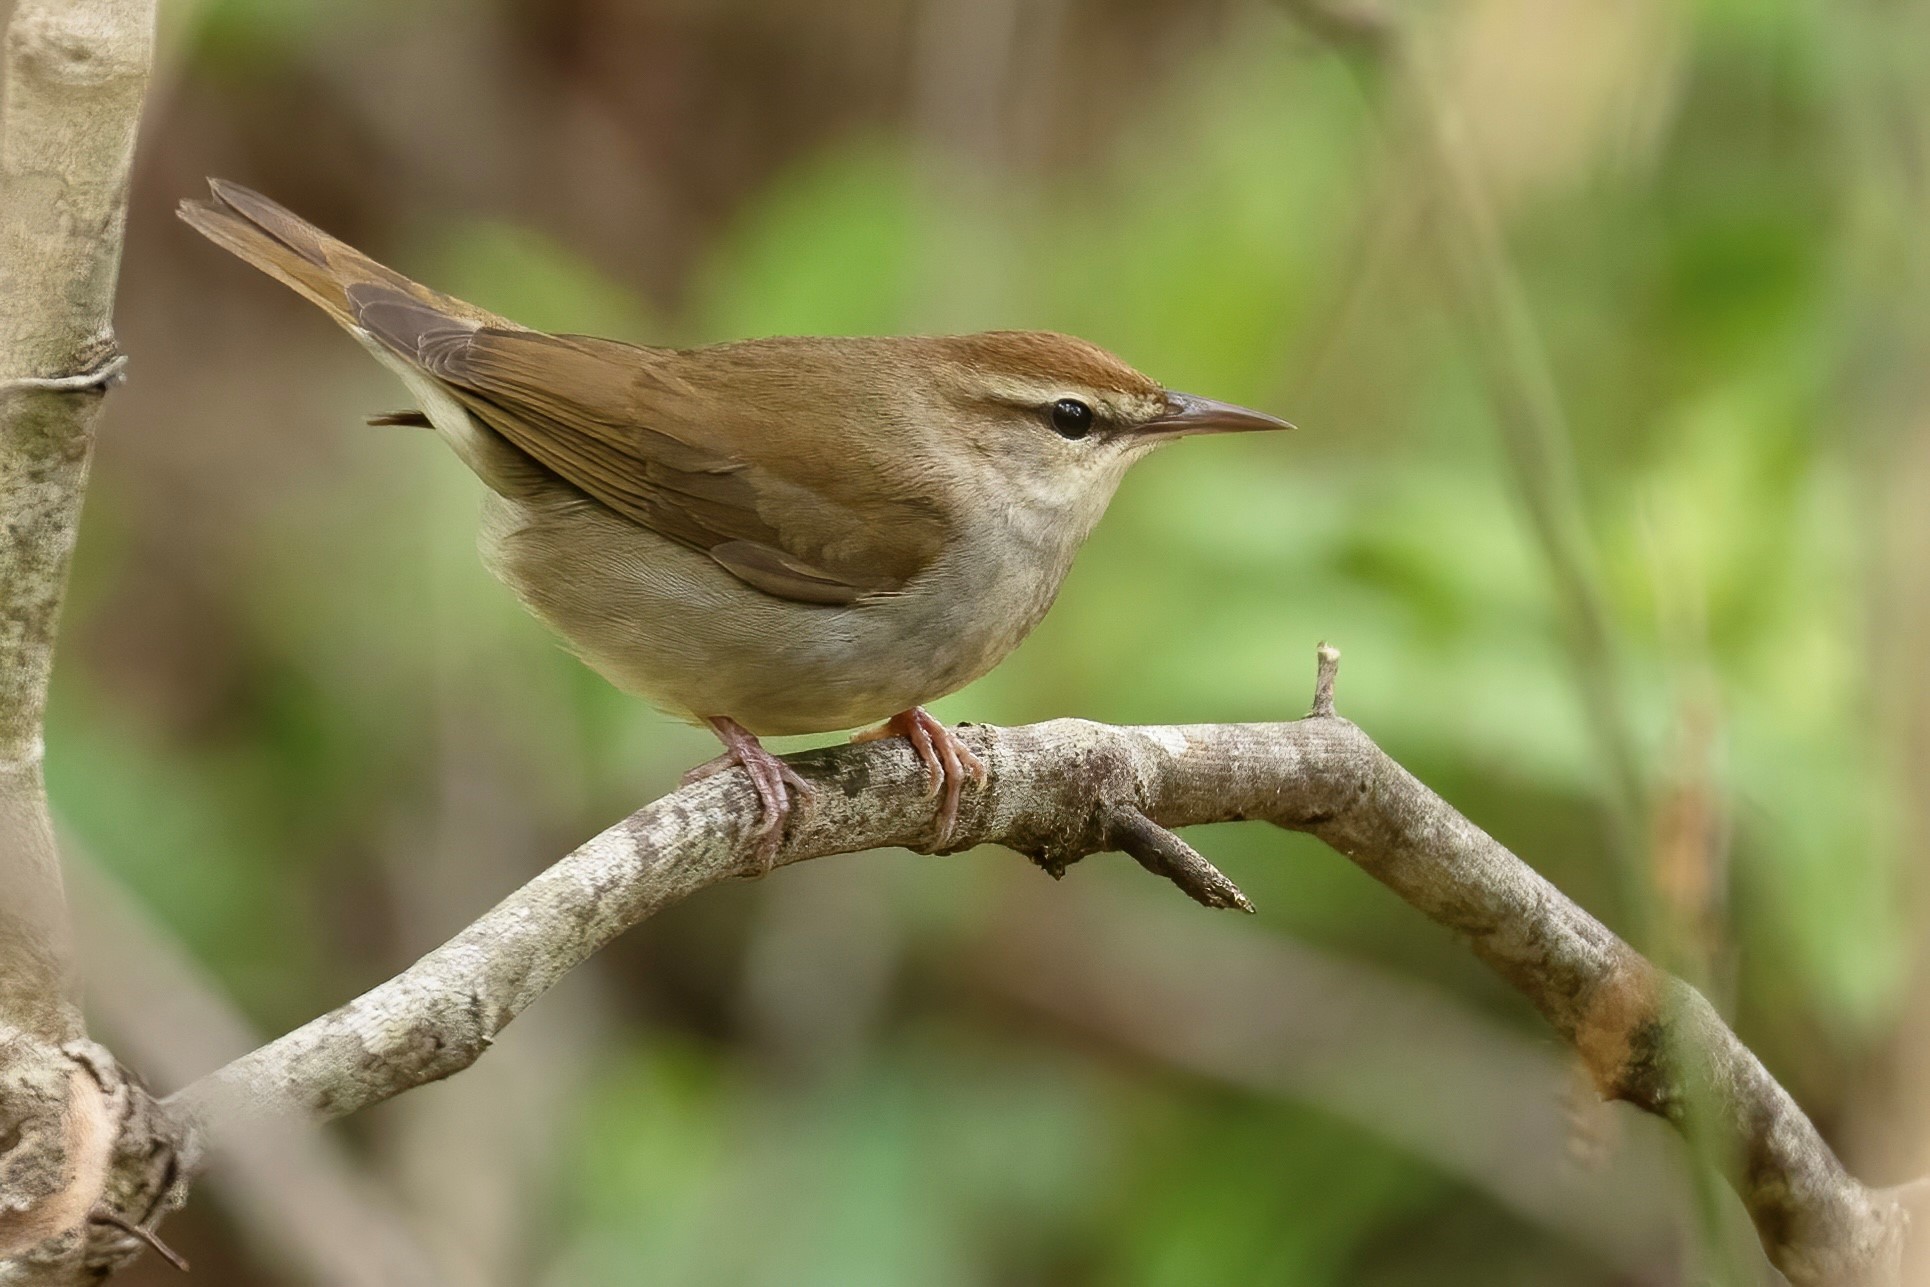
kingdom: Animalia
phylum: Chordata
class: Aves
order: Passeriformes
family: Parulidae
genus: Limnothlypis
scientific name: Limnothlypis swainsonii
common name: Swainson's warbler
